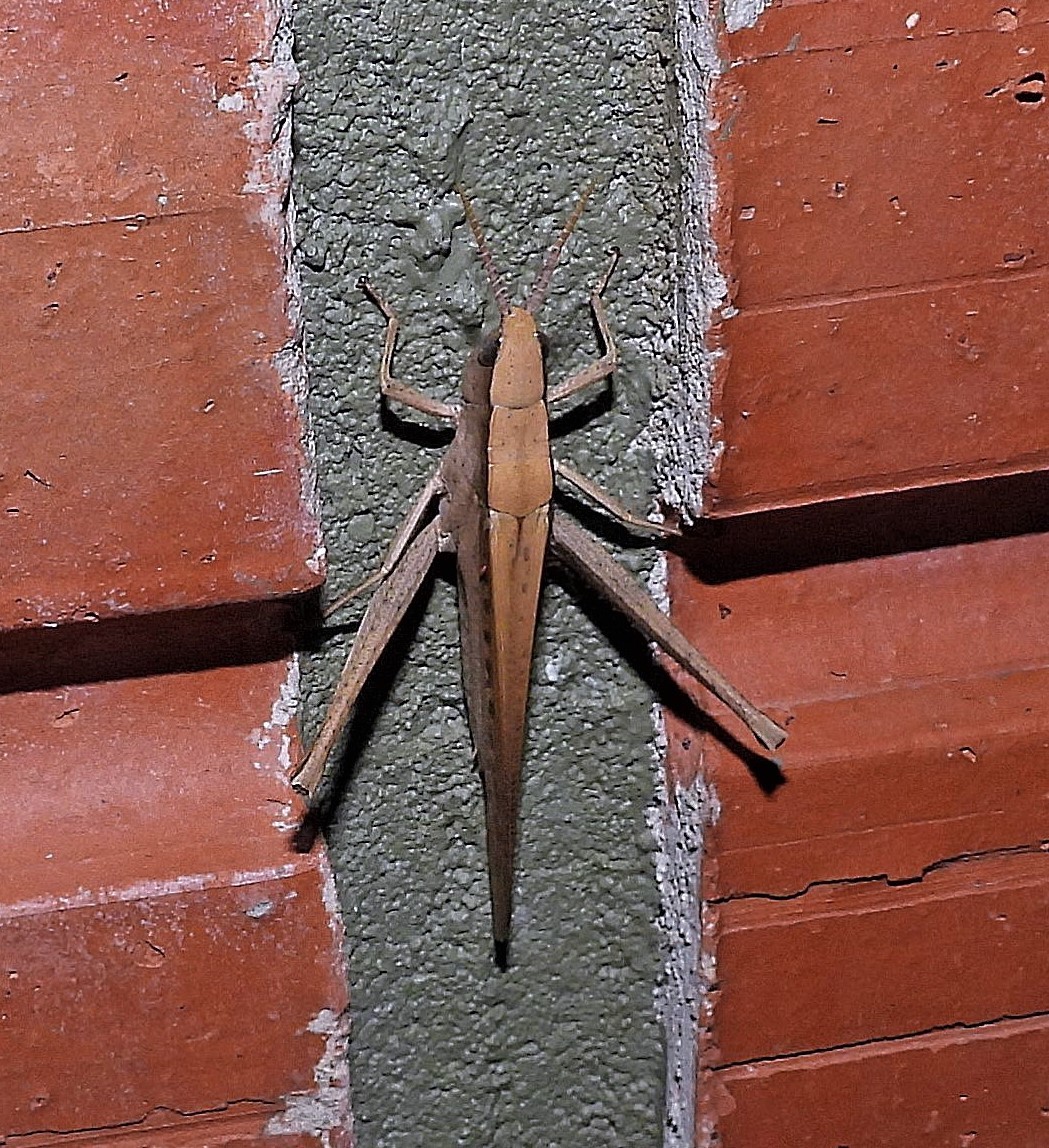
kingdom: Animalia
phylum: Arthropoda
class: Insecta
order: Orthoptera
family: Acrididae
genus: Metaleptea
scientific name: Metaleptea adspersa
